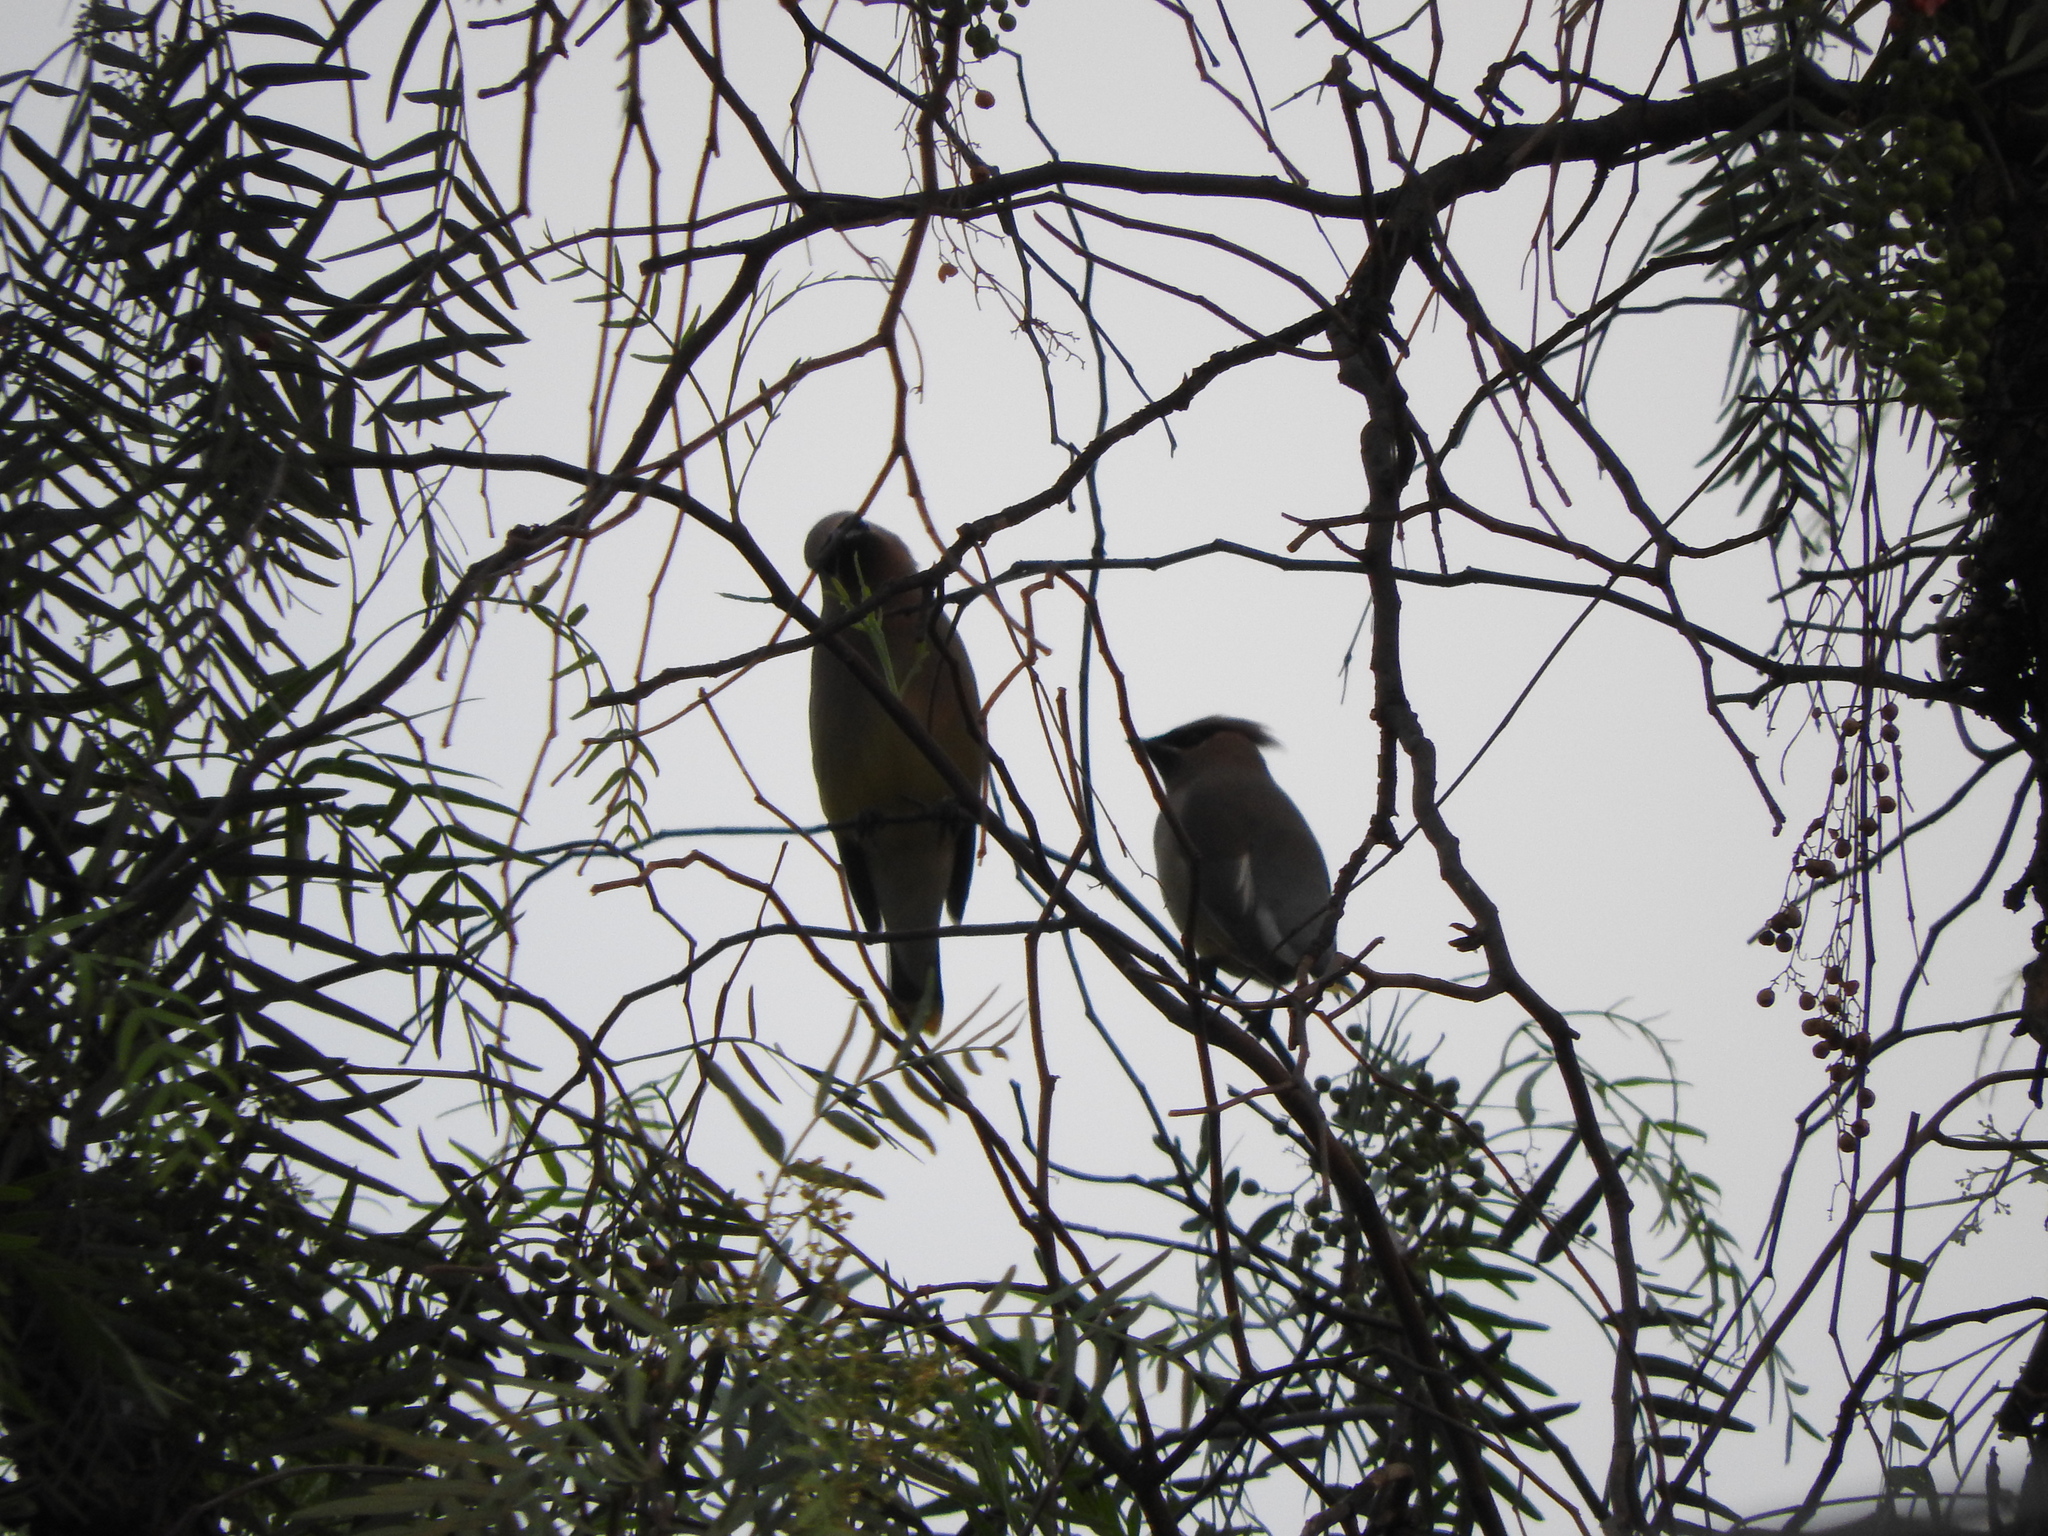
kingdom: Animalia
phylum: Chordata
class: Aves
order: Passeriformes
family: Bombycillidae
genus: Bombycilla
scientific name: Bombycilla cedrorum
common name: Cedar waxwing
